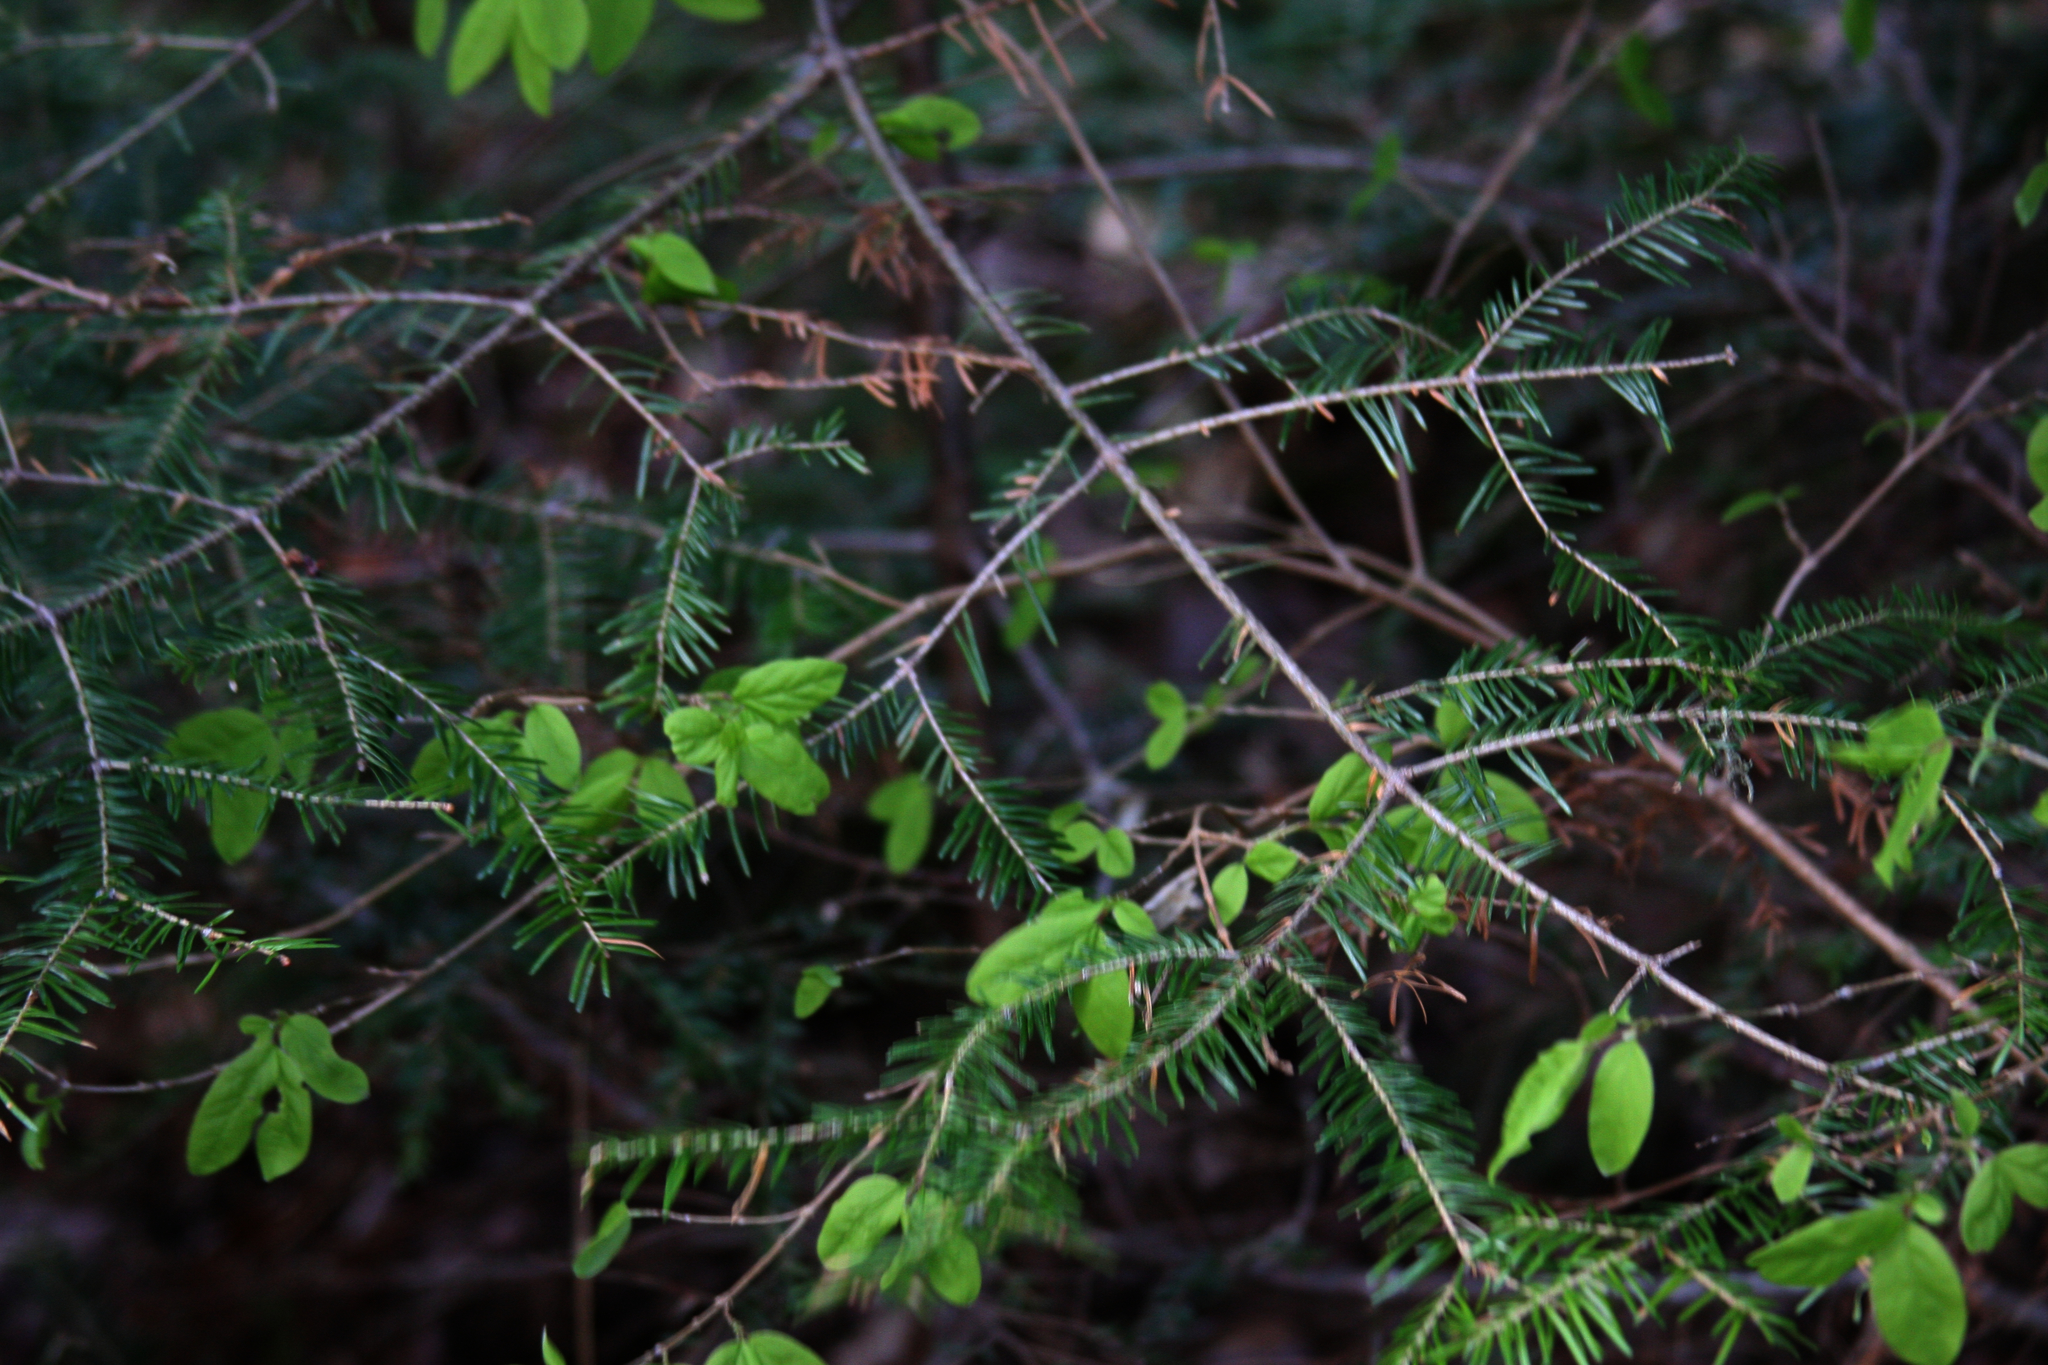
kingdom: Plantae
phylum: Tracheophyta
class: Magnoliopsida
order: Dipsacales
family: Caprifoliaceae
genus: Lonicera
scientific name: Lonicera canadensis
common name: American fly-honeysuckle
